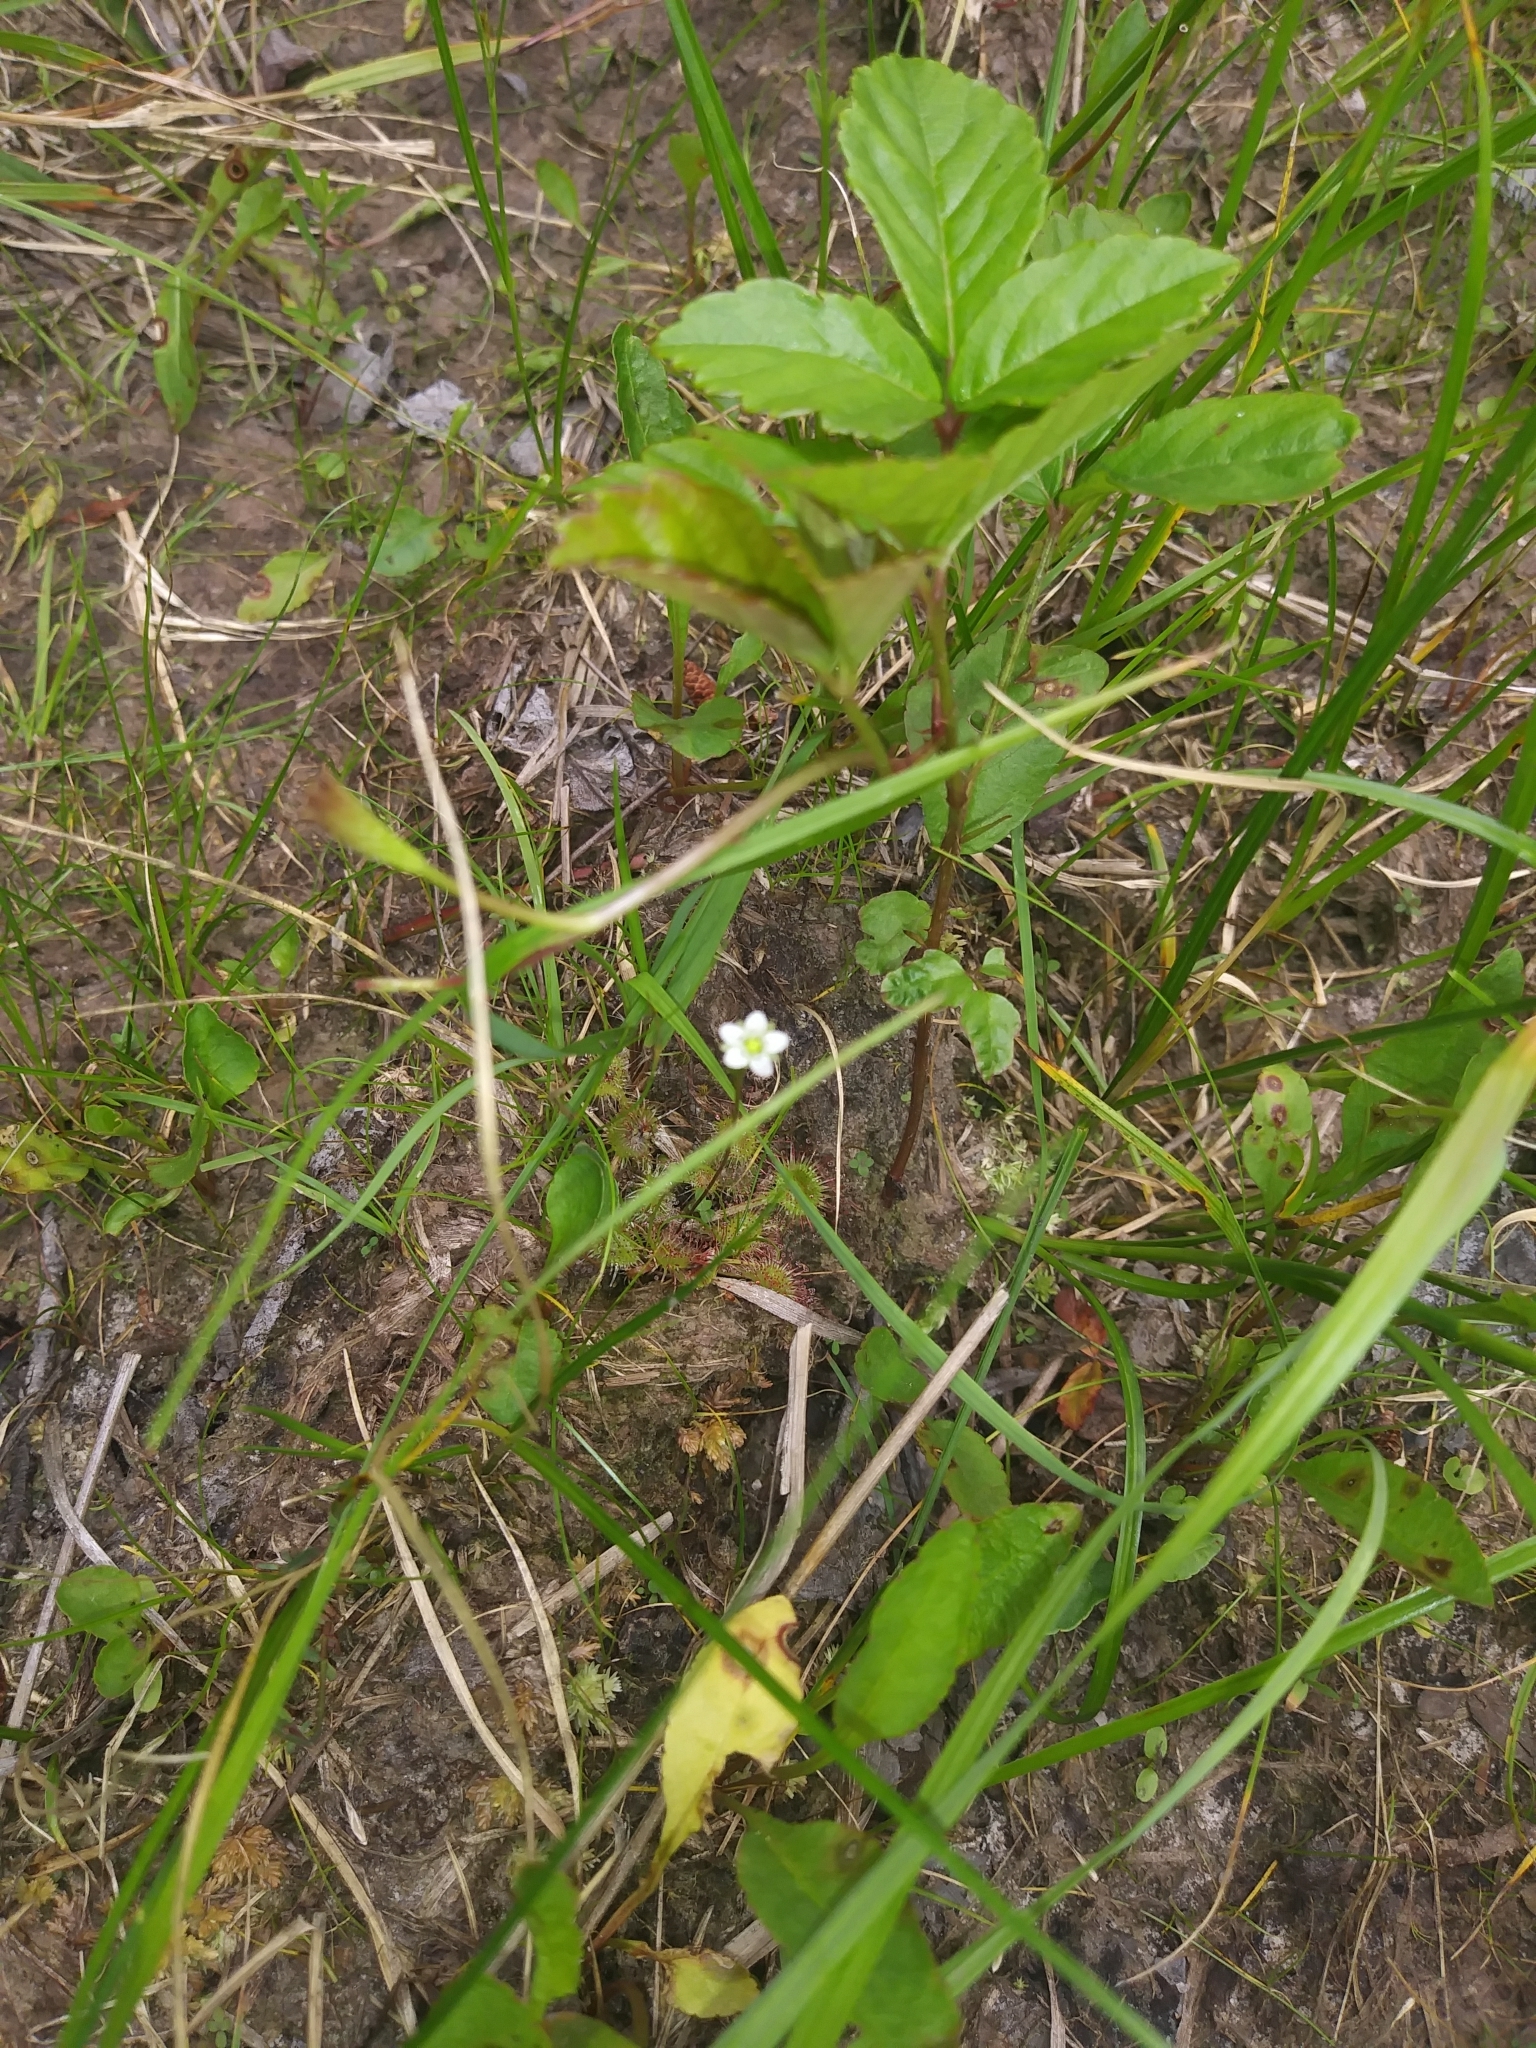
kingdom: Plantae
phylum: Tracheophyta
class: Magnoliopsida
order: Caryophyllales
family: Droseraceae
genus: Drosera
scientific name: Drosera rotundifolia
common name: Round-leaved sundew
